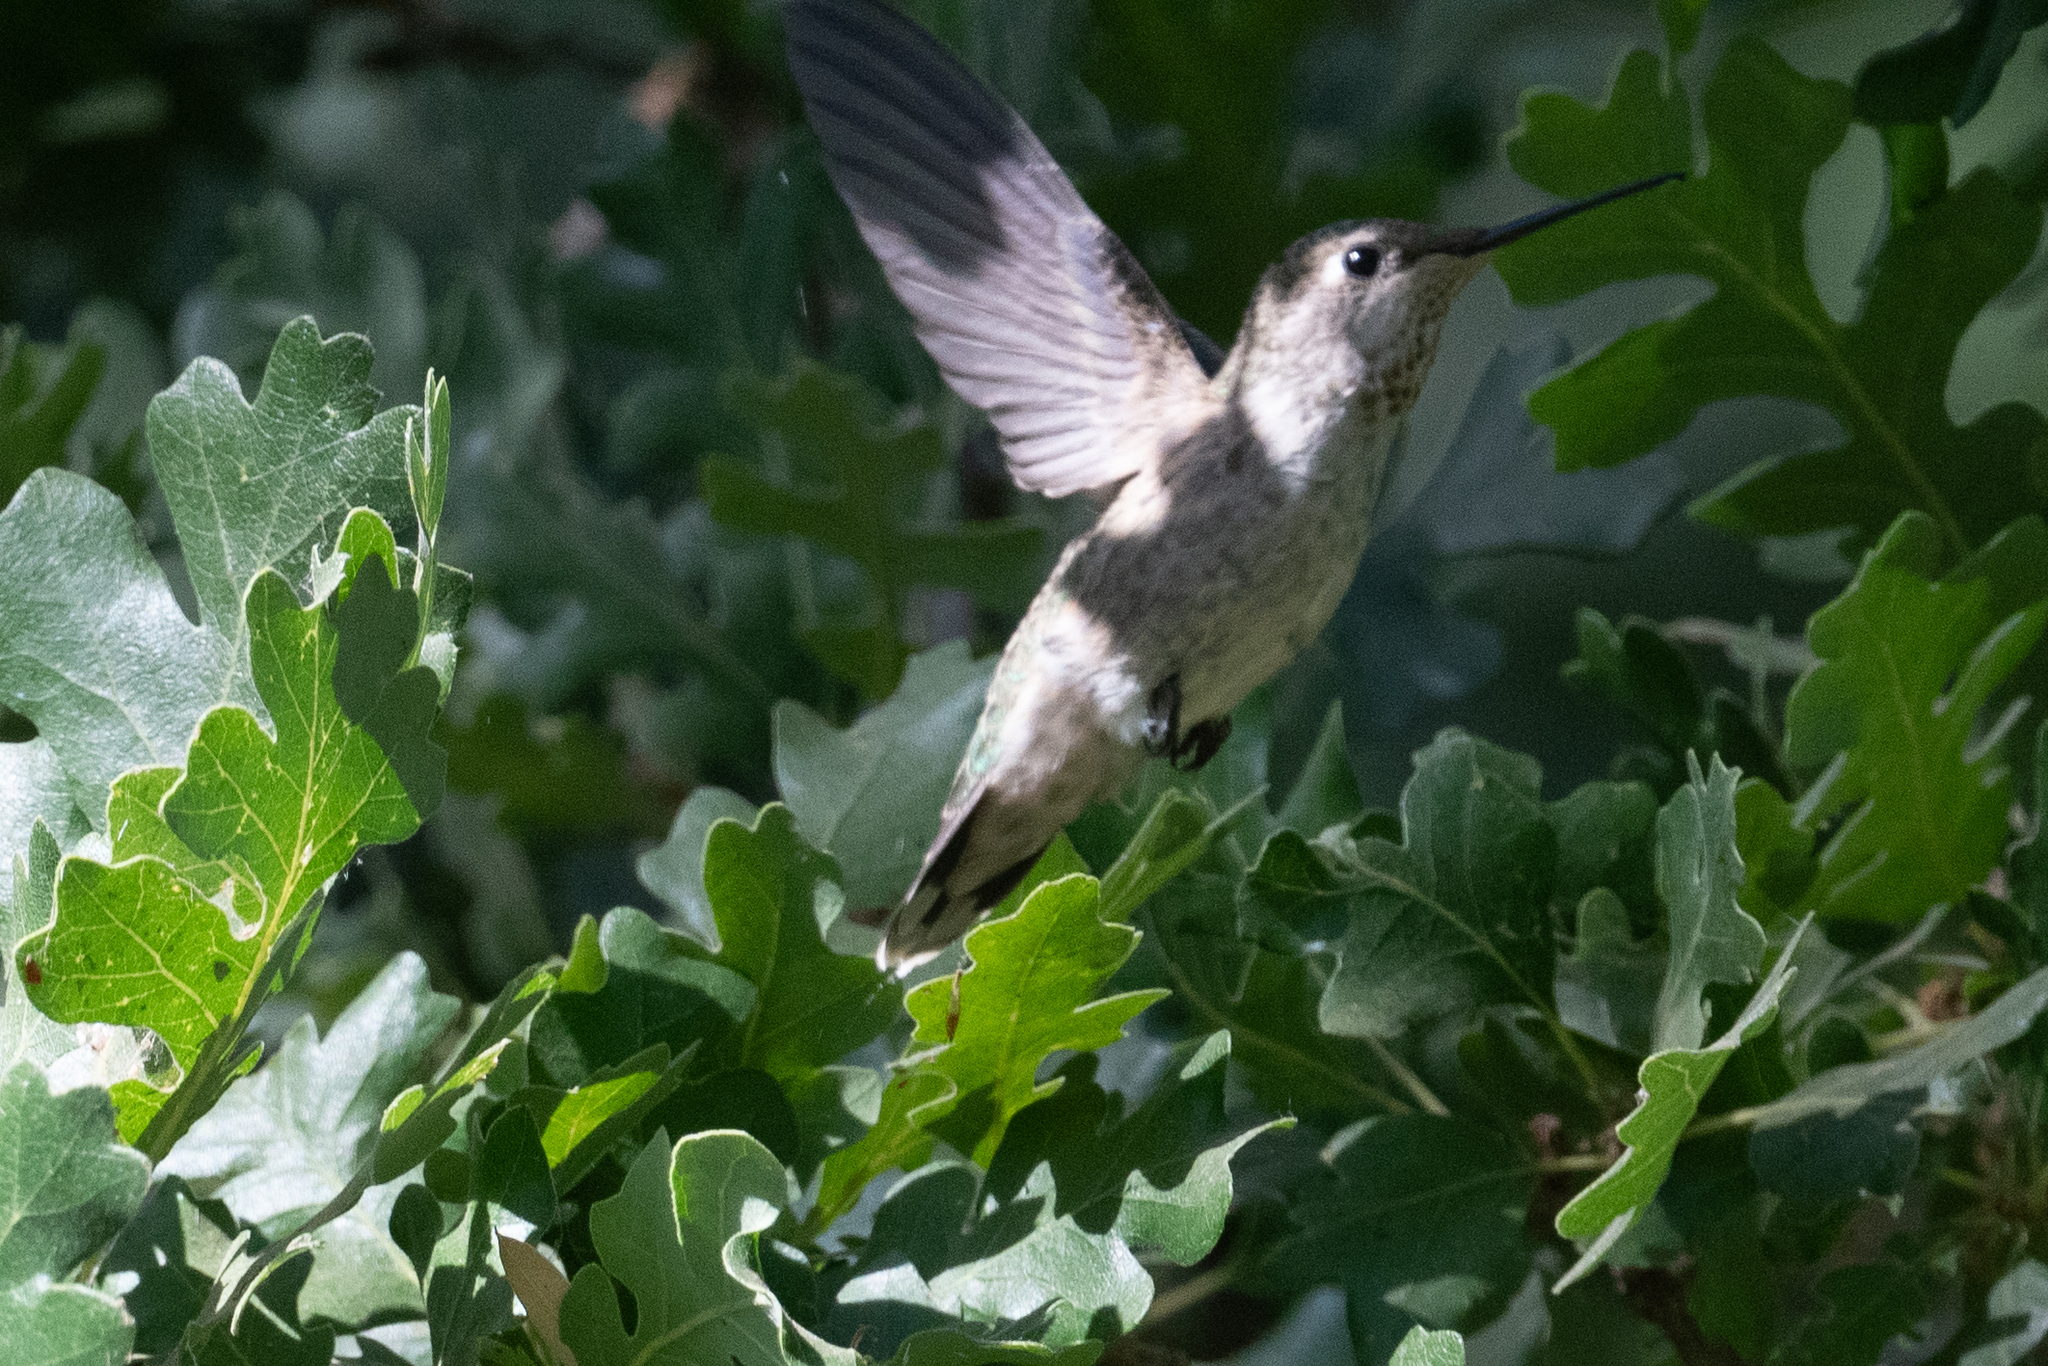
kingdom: Animalia
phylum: Chordata
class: Aves
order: Apodiformes
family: Trochilidae
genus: Calypte
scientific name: Calypte anna
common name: Anna's hummingbird
